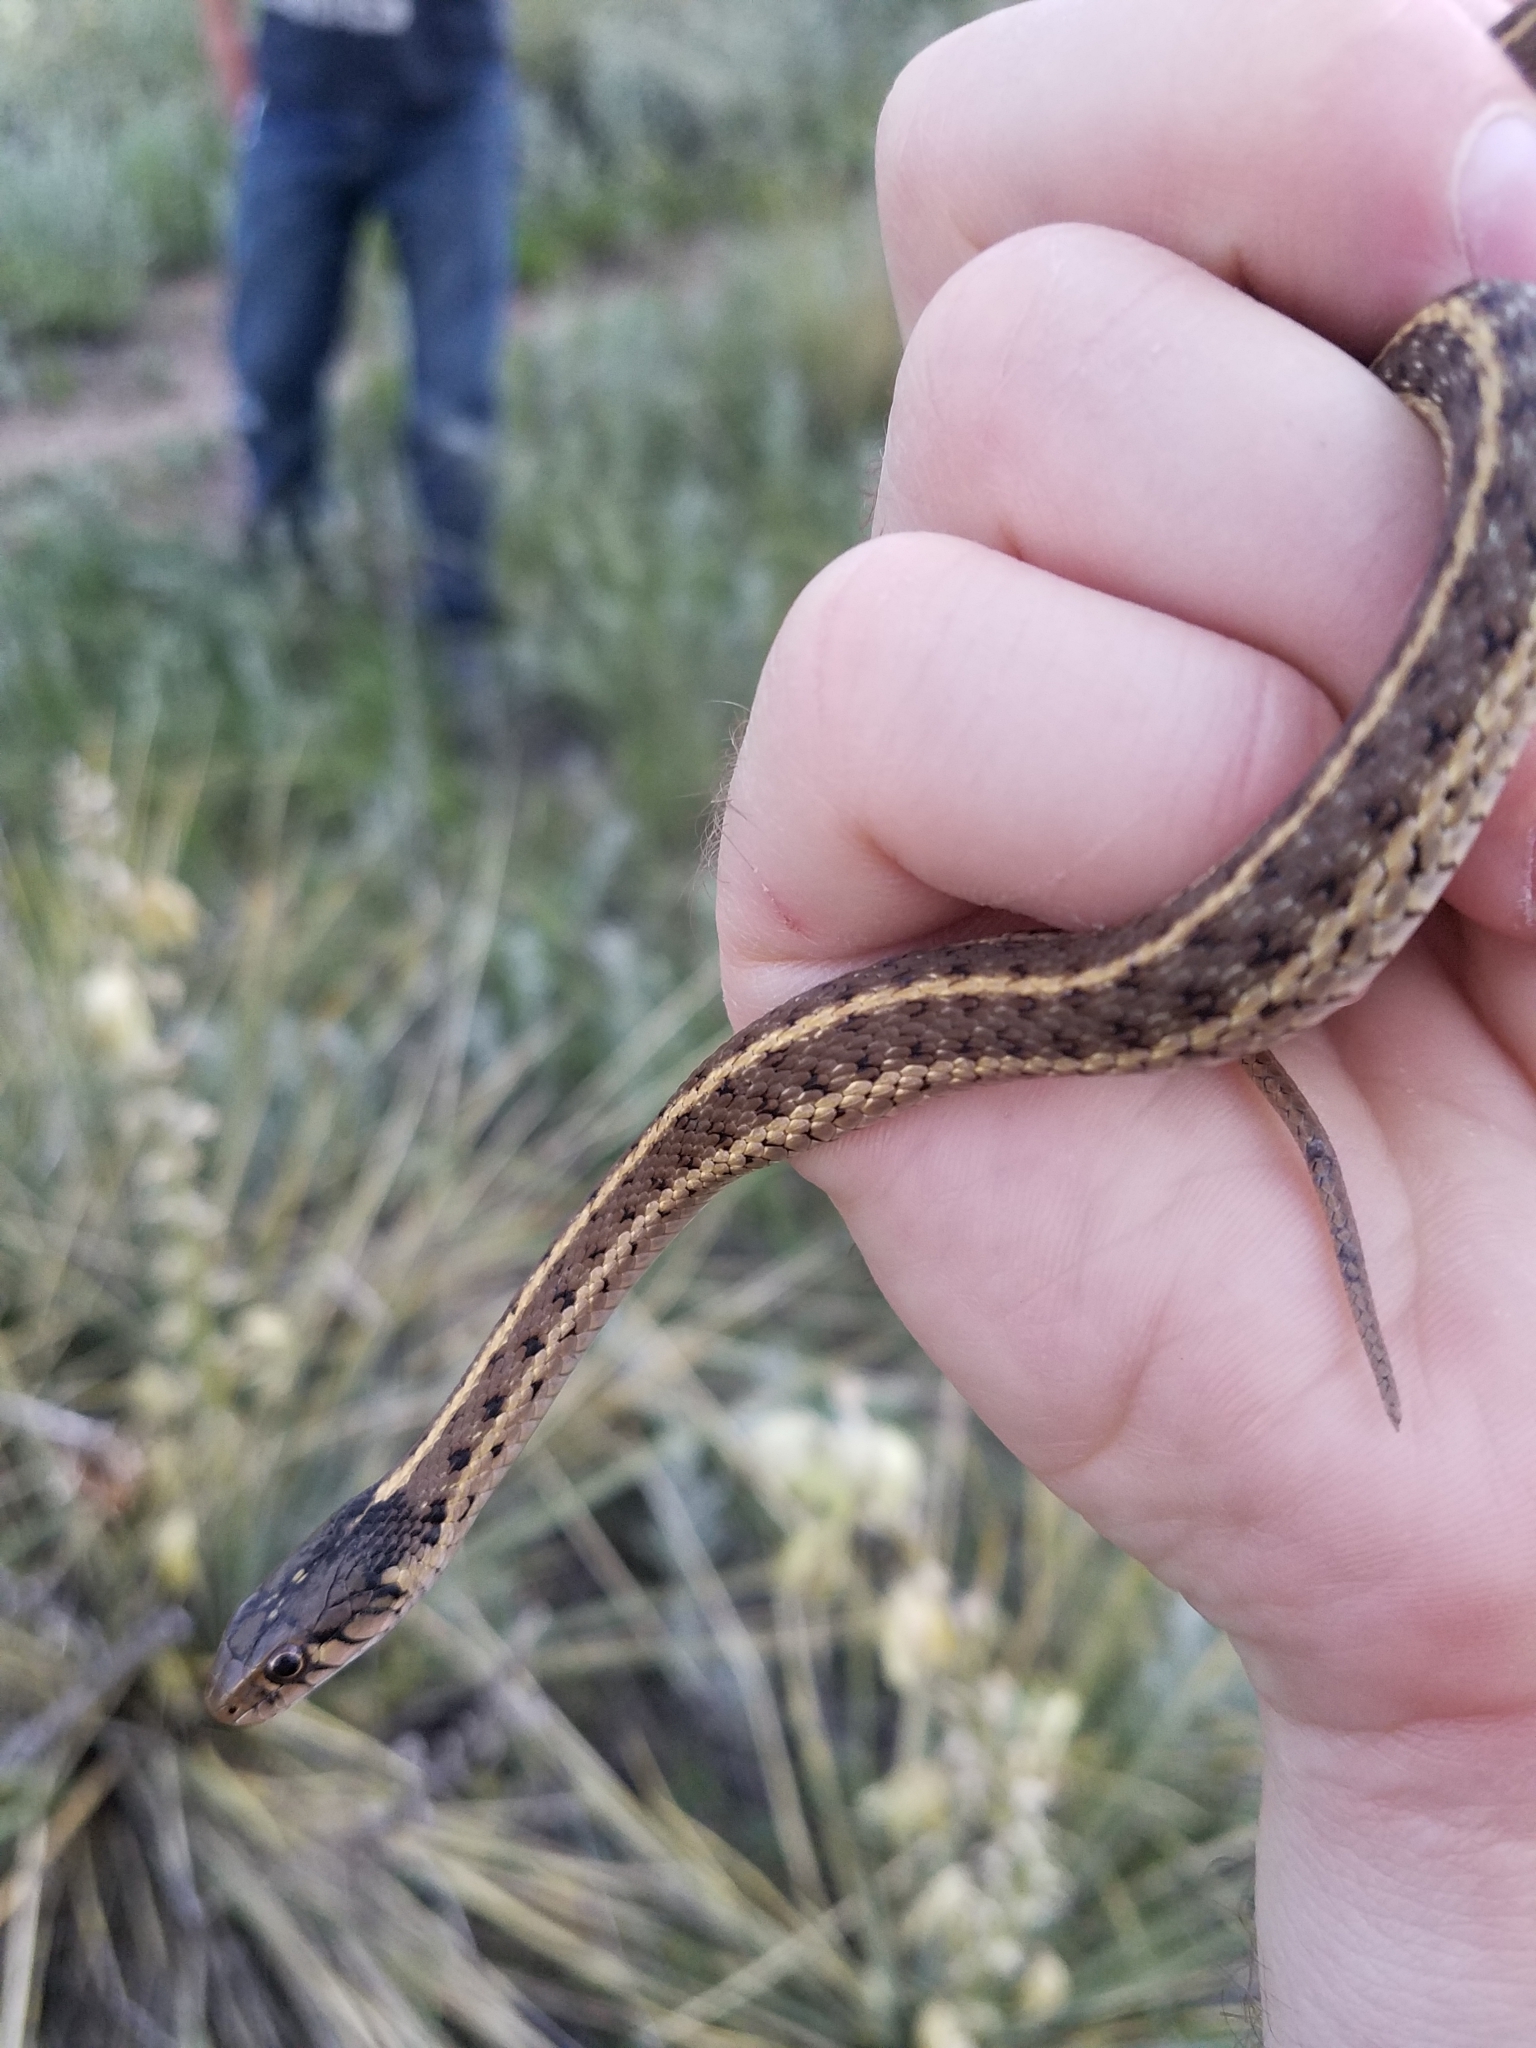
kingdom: Animalia
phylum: Chordata
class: Squamata
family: Colubridae
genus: Thamnophis
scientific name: Thamnophis elegans
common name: Western terrestrial garter snake
